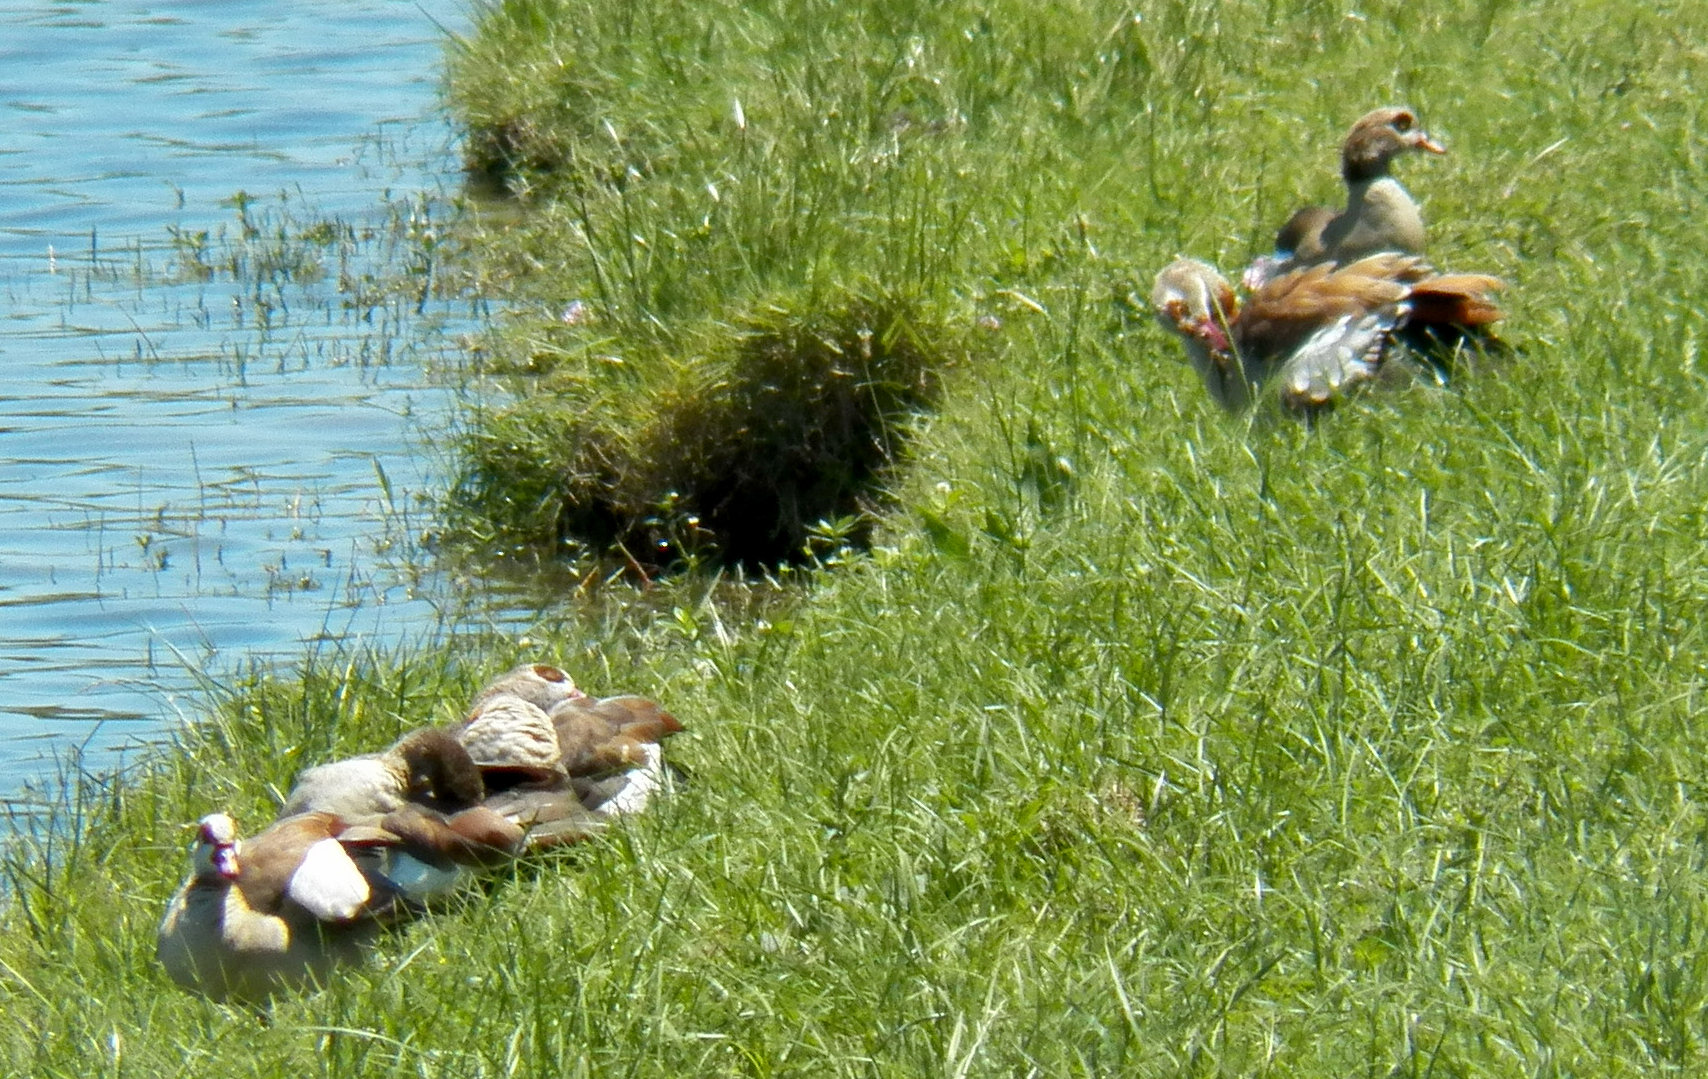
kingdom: Animalia
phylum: Chordata
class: Aves
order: Anseriformes
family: Anatidae
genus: Alopochen
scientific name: Alopochen aegyptiaca
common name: Egyptian goose
